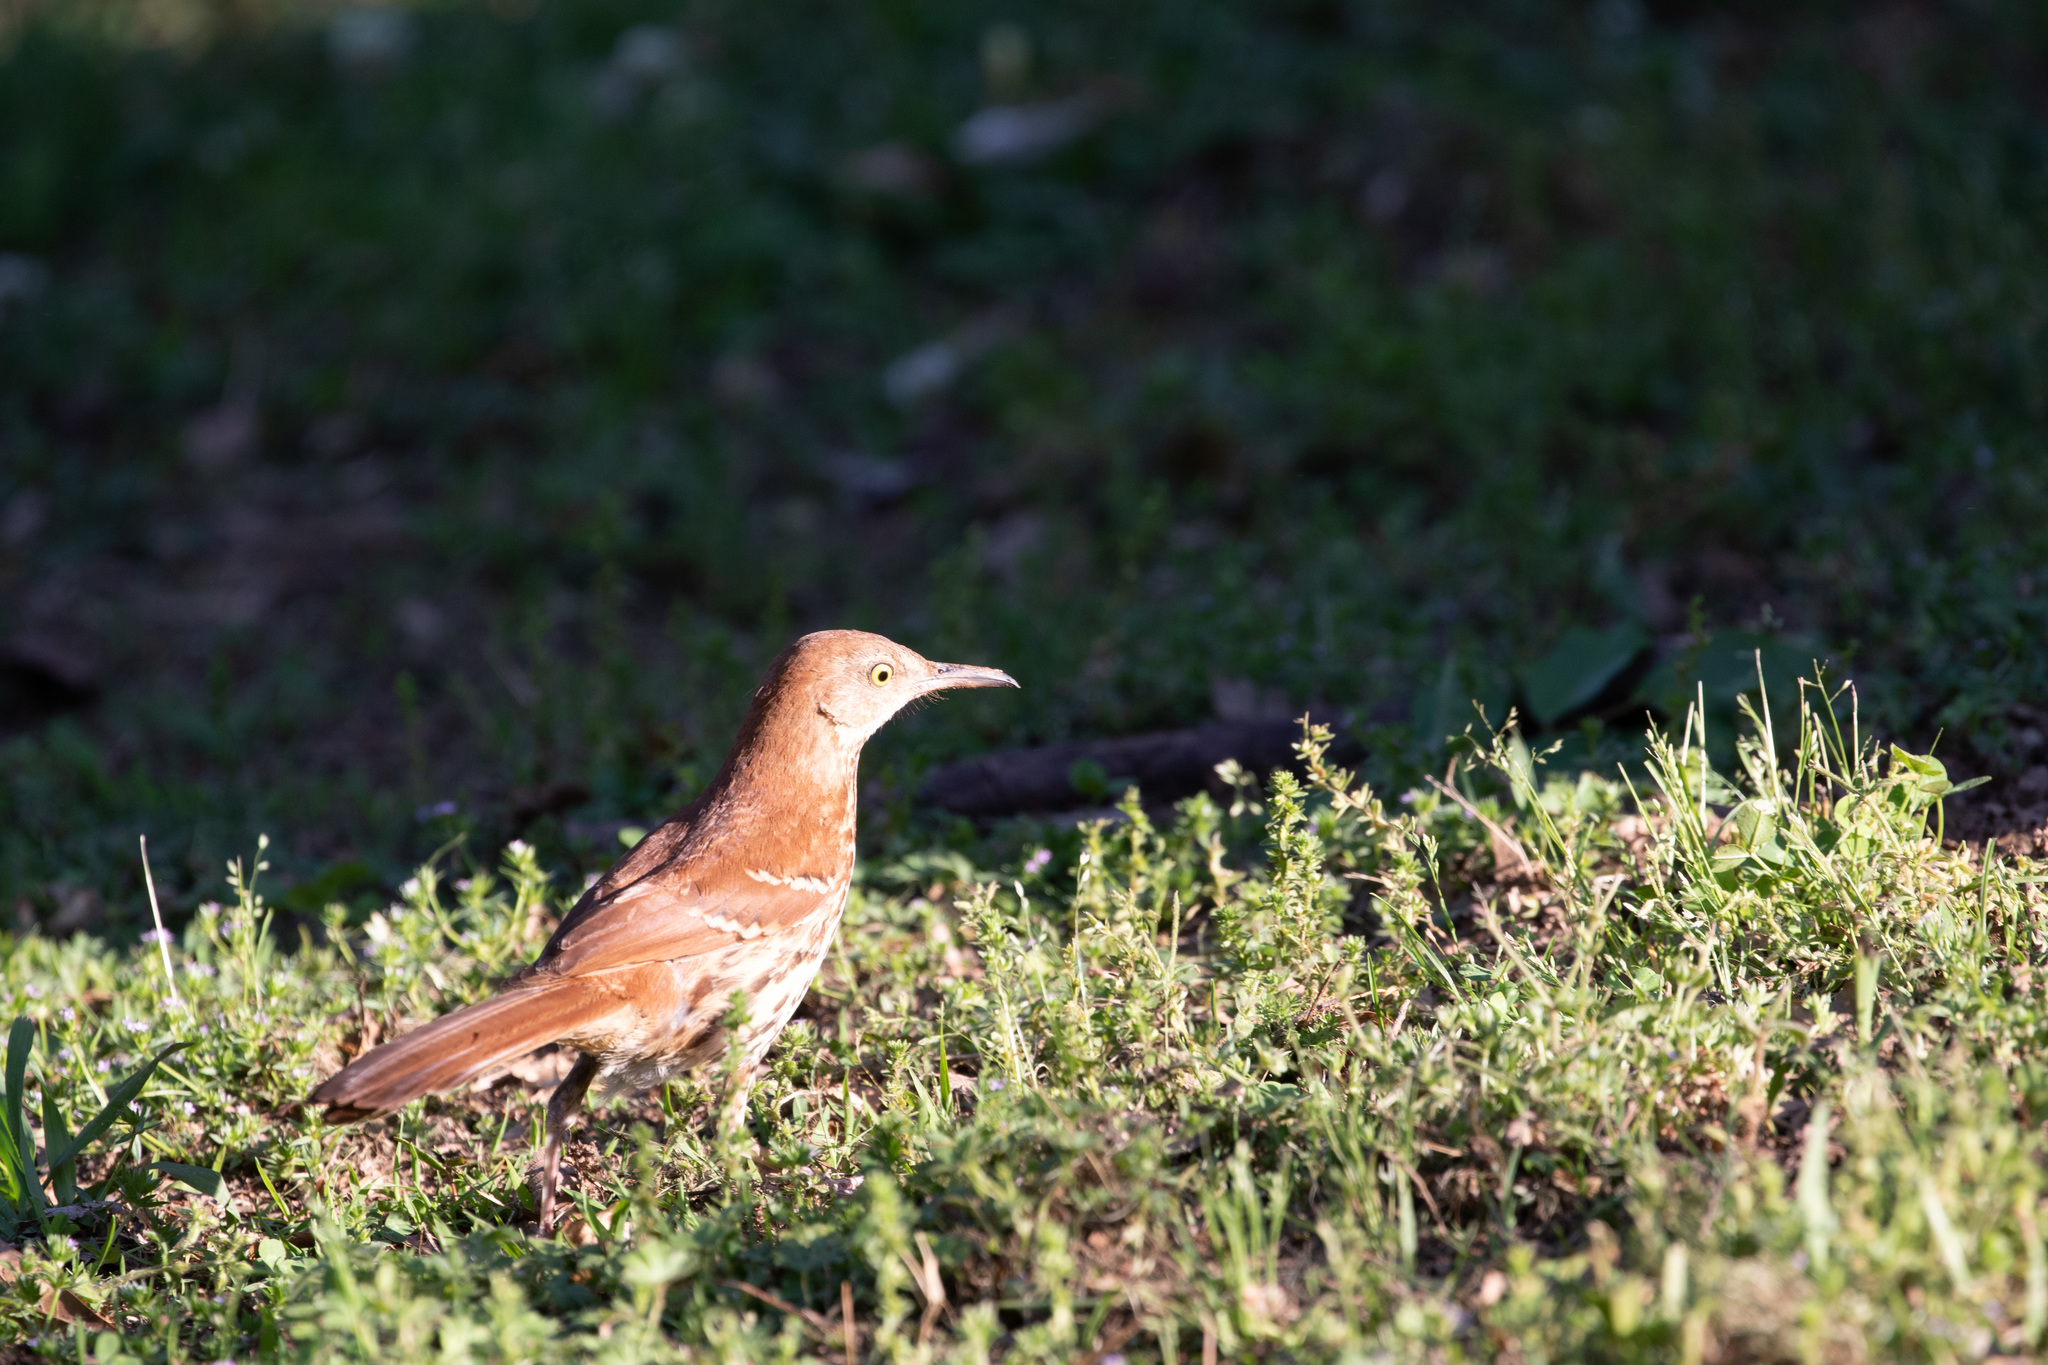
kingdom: Animalia
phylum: Chordata
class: Aves
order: Passeriformes
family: Mimidae
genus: Toxostoma
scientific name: Toxostoma rufum
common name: Brown thrasher
